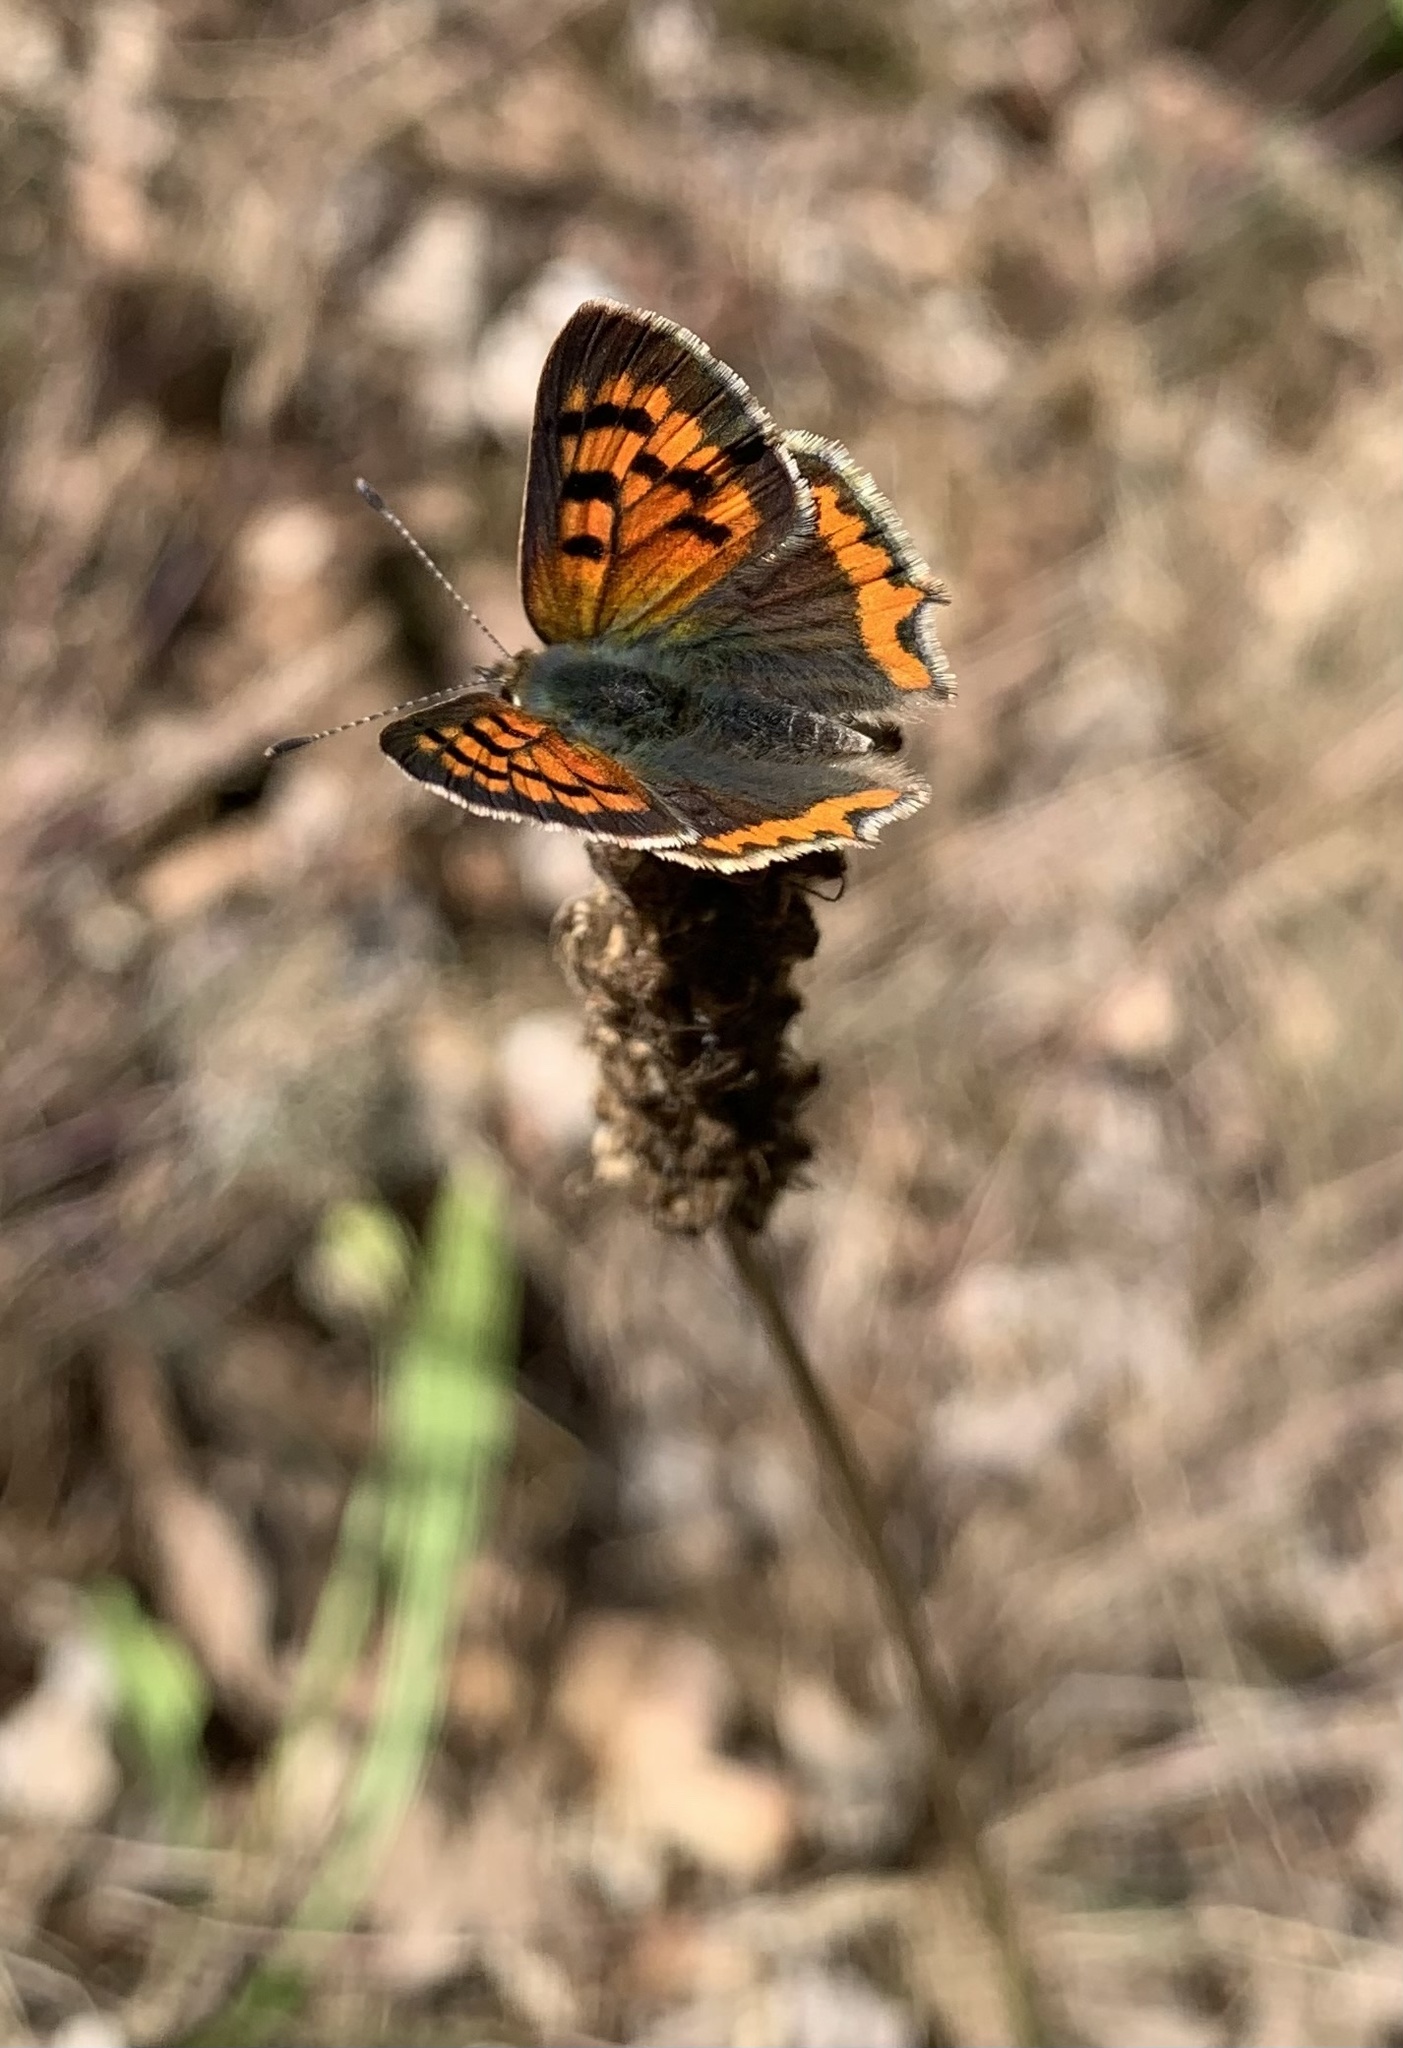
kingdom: Animalia
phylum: Arthropoda
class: Insecta
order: Lepidoptera
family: Lycaenidae
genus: Lycaena
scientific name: Lycaena phlaeas
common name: Small copper
